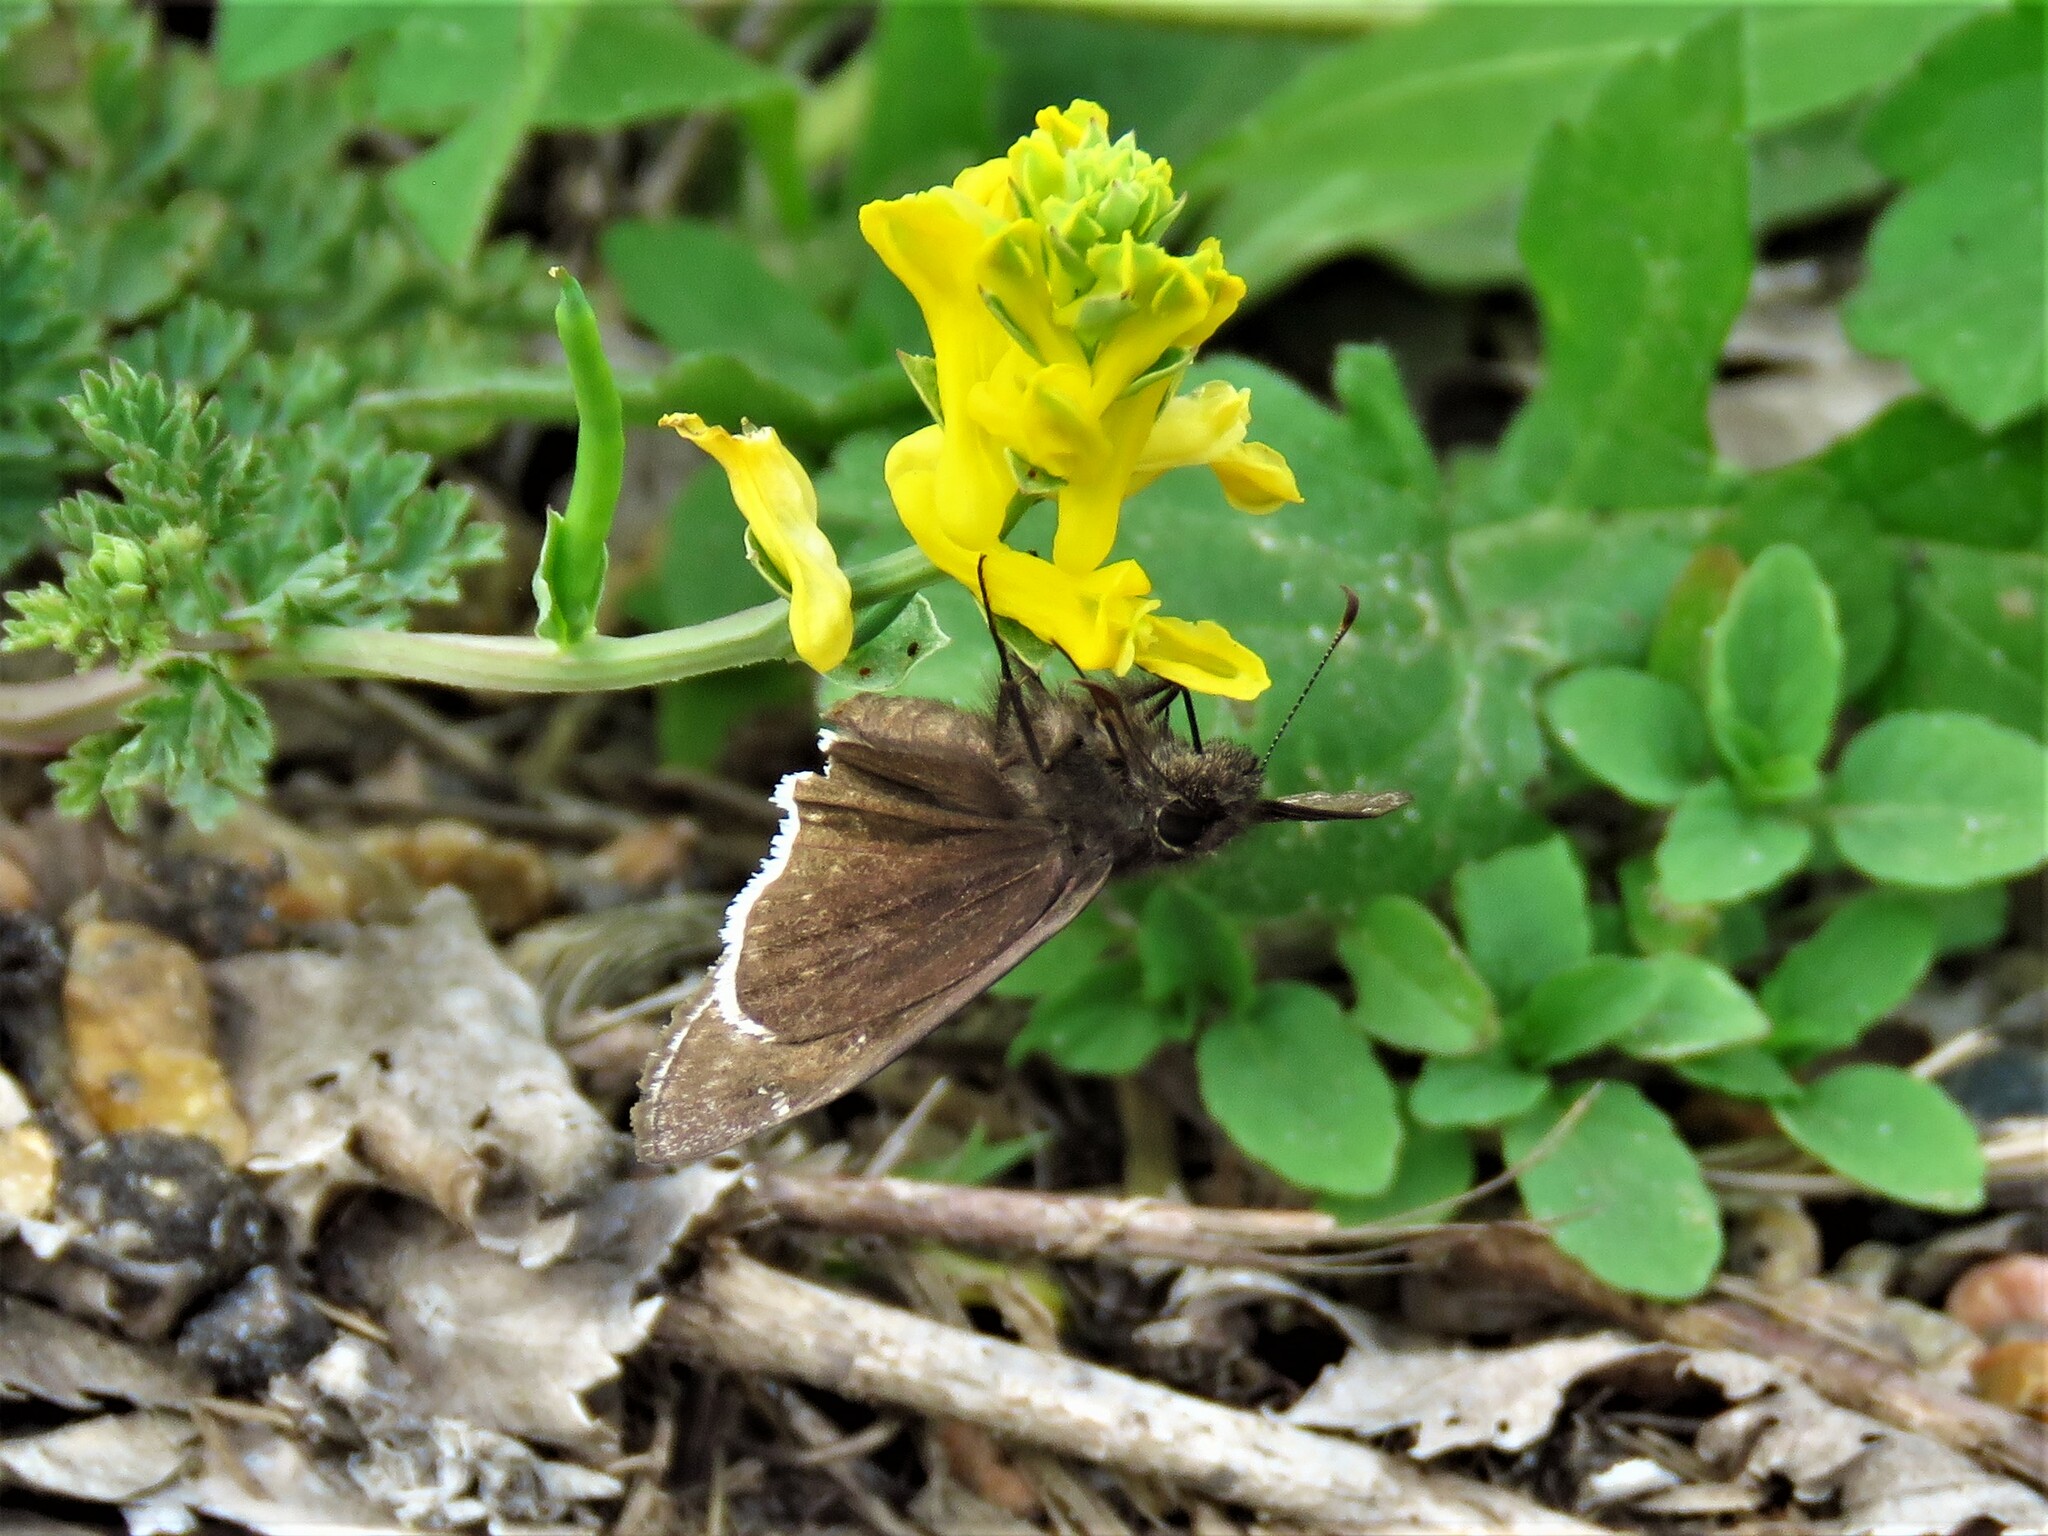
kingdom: Animalia
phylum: Arthropoda
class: Insecta
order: Lepidoptera
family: Hesperiidae
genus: Erynnis
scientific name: Erynnis funeralis
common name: Funereal duskywing
